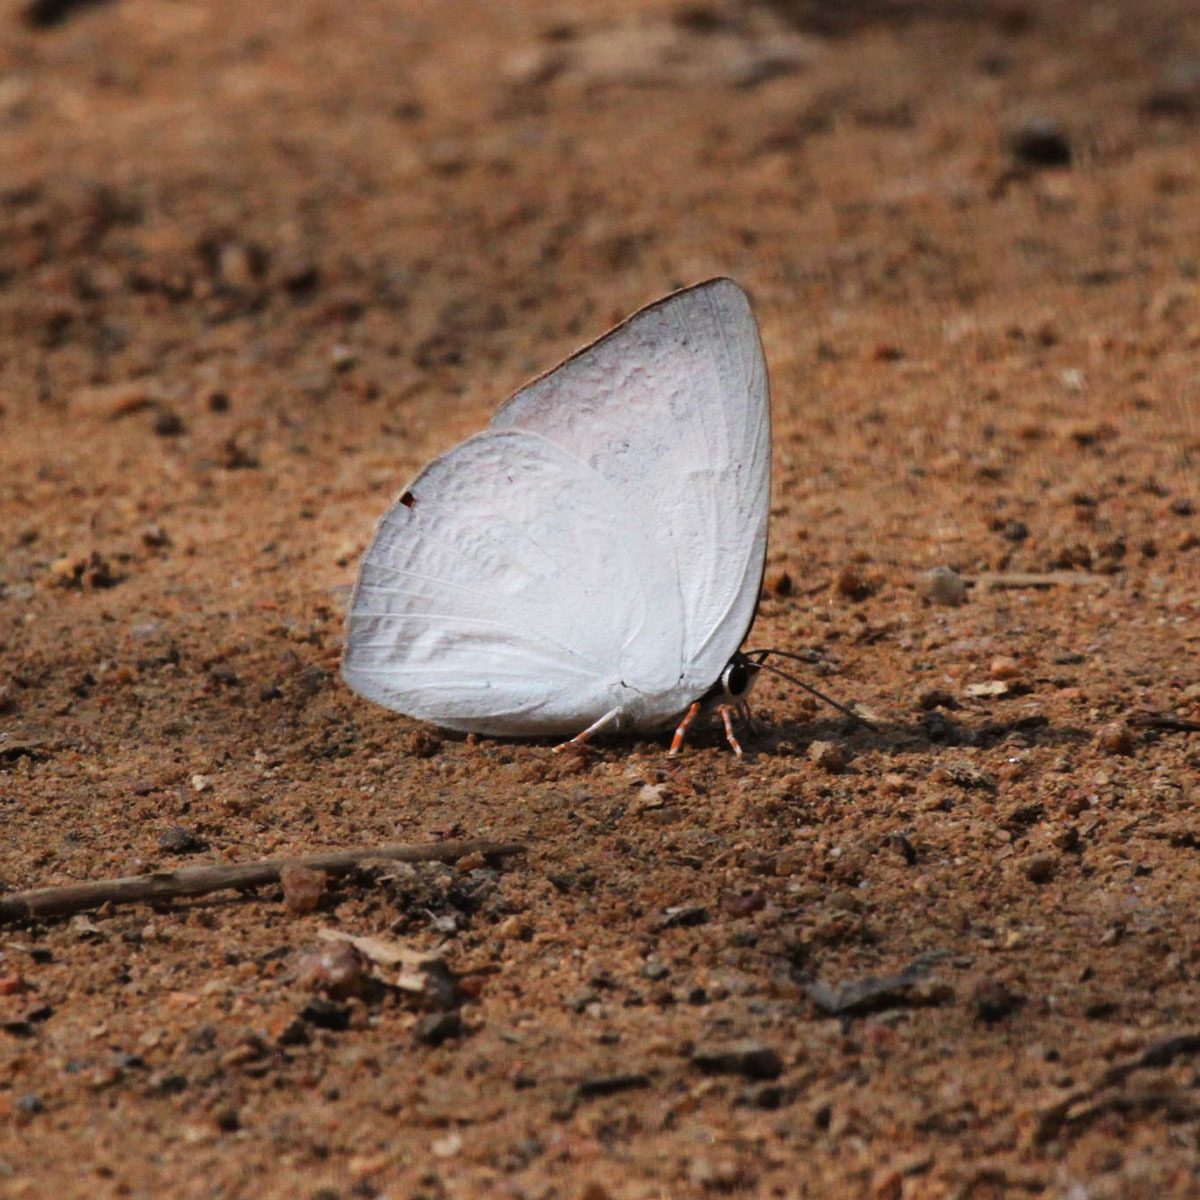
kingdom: Animalia
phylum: Arthropoda
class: Insecta
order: Lepidoptera
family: Lycaenidae
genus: Curetis
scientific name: Curetis thetis
